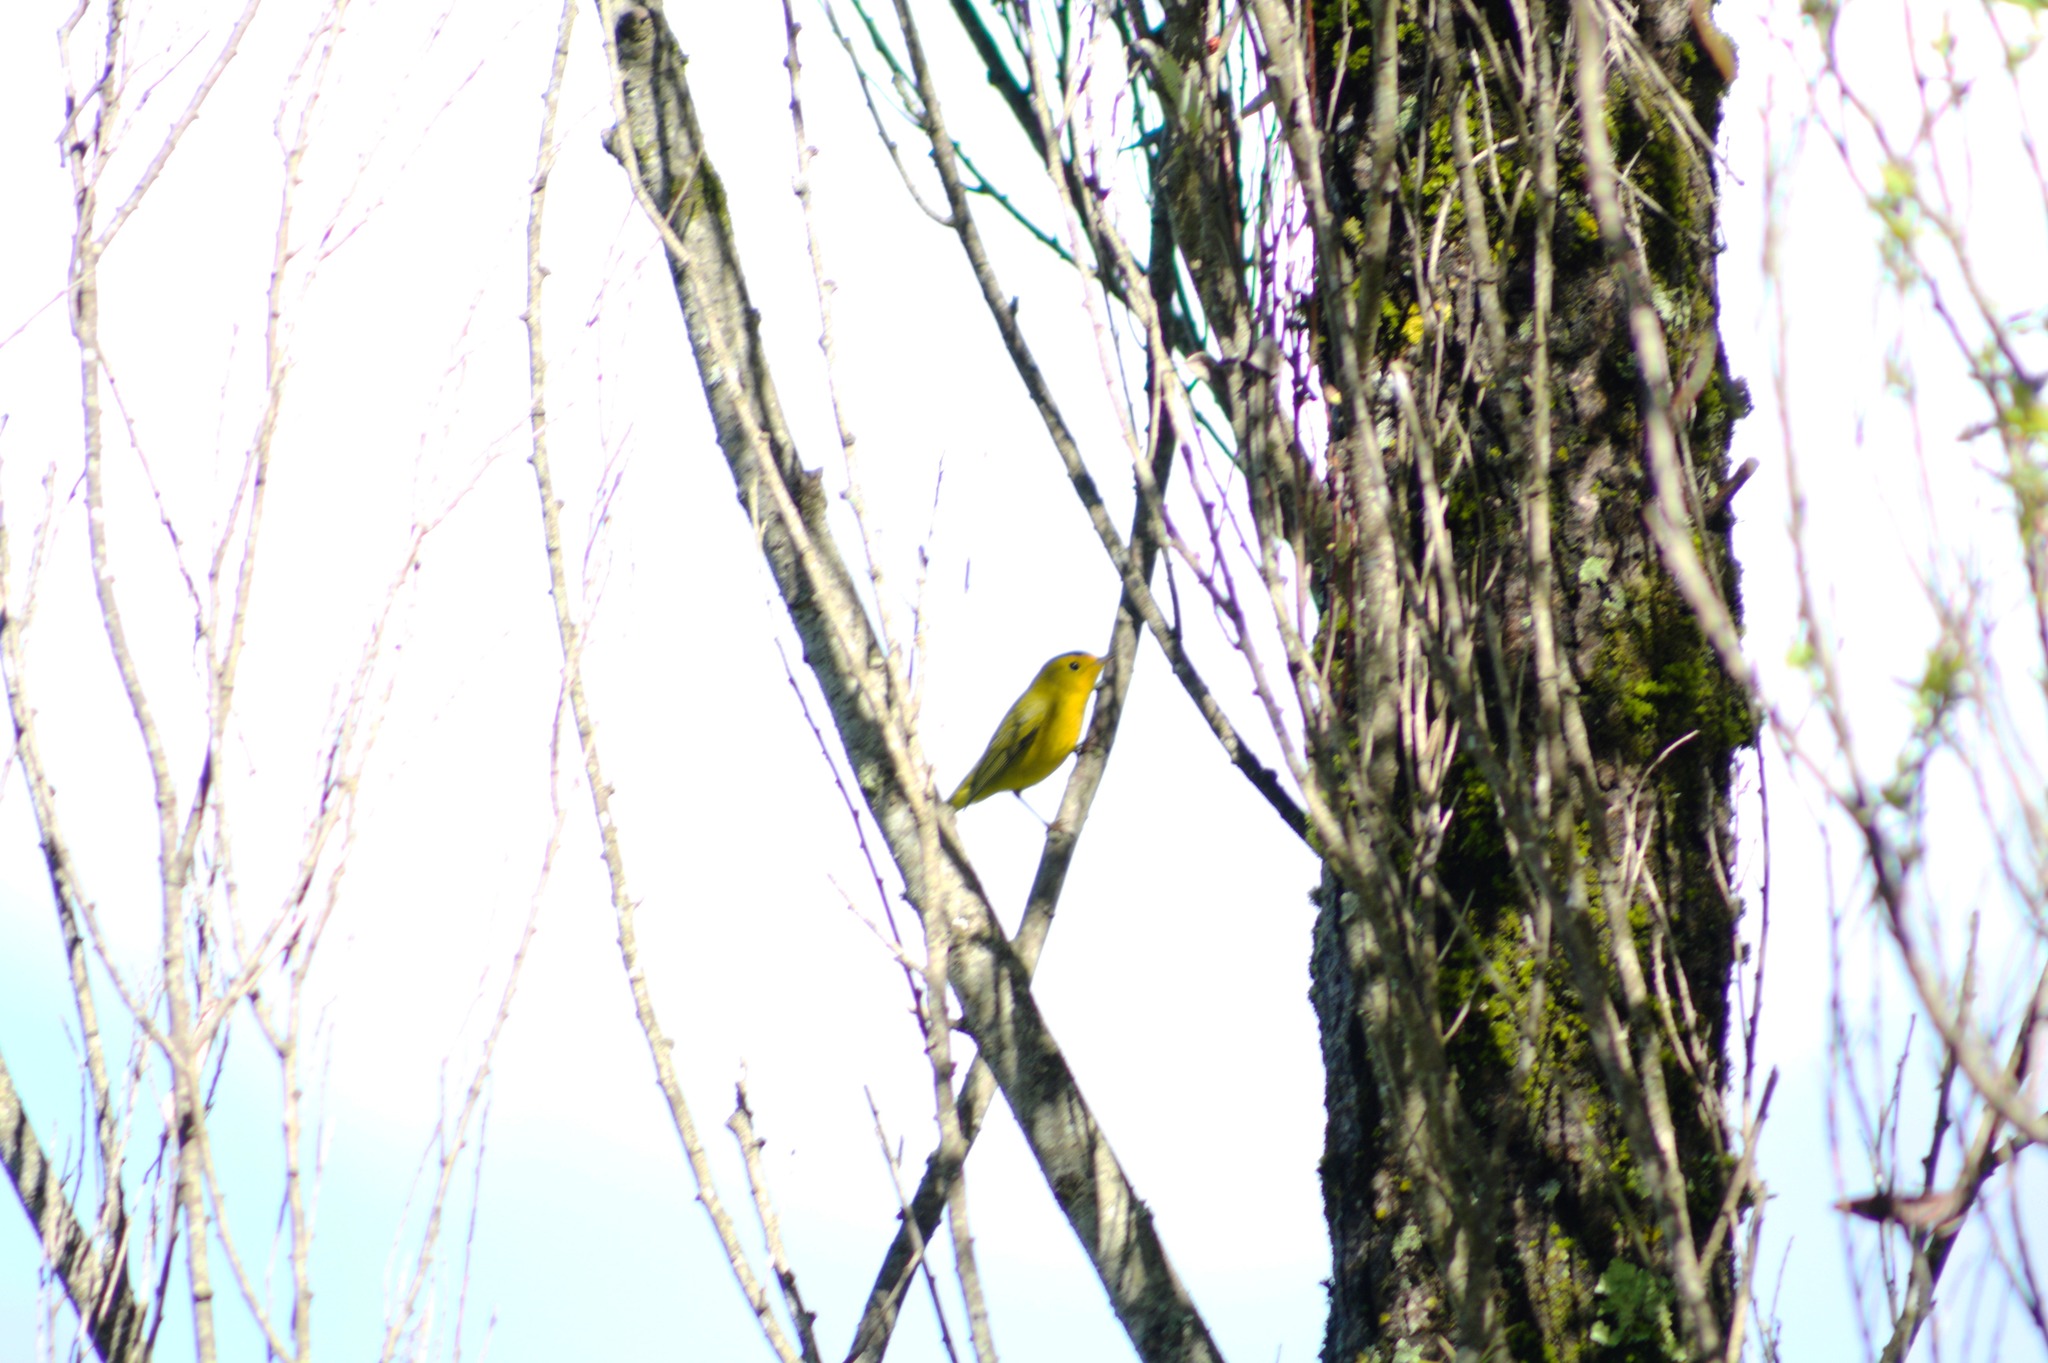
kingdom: Animalia
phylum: Chordata
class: Aves
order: Passeriformes
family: Parulidae
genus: Cardellina
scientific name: Cardellina pusilla
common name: Wilson's warbler
